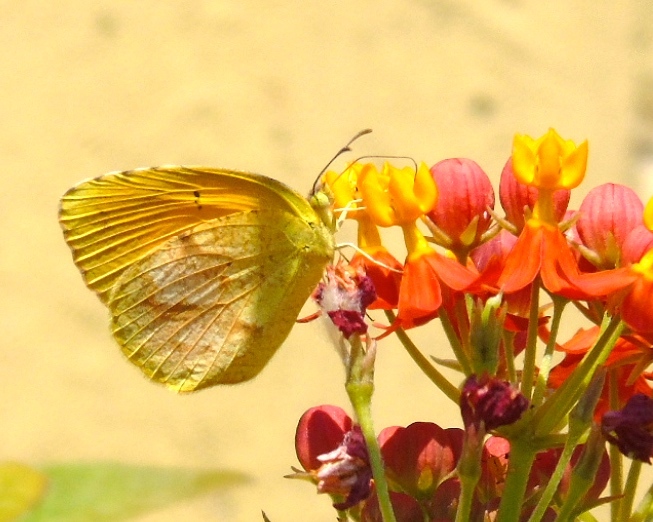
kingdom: Animalia
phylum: Arthropoda
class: Insecta
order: Lepidoptera
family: Pieridae
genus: Abaeis
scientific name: Abaeis nicippe
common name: Sleepy orange
